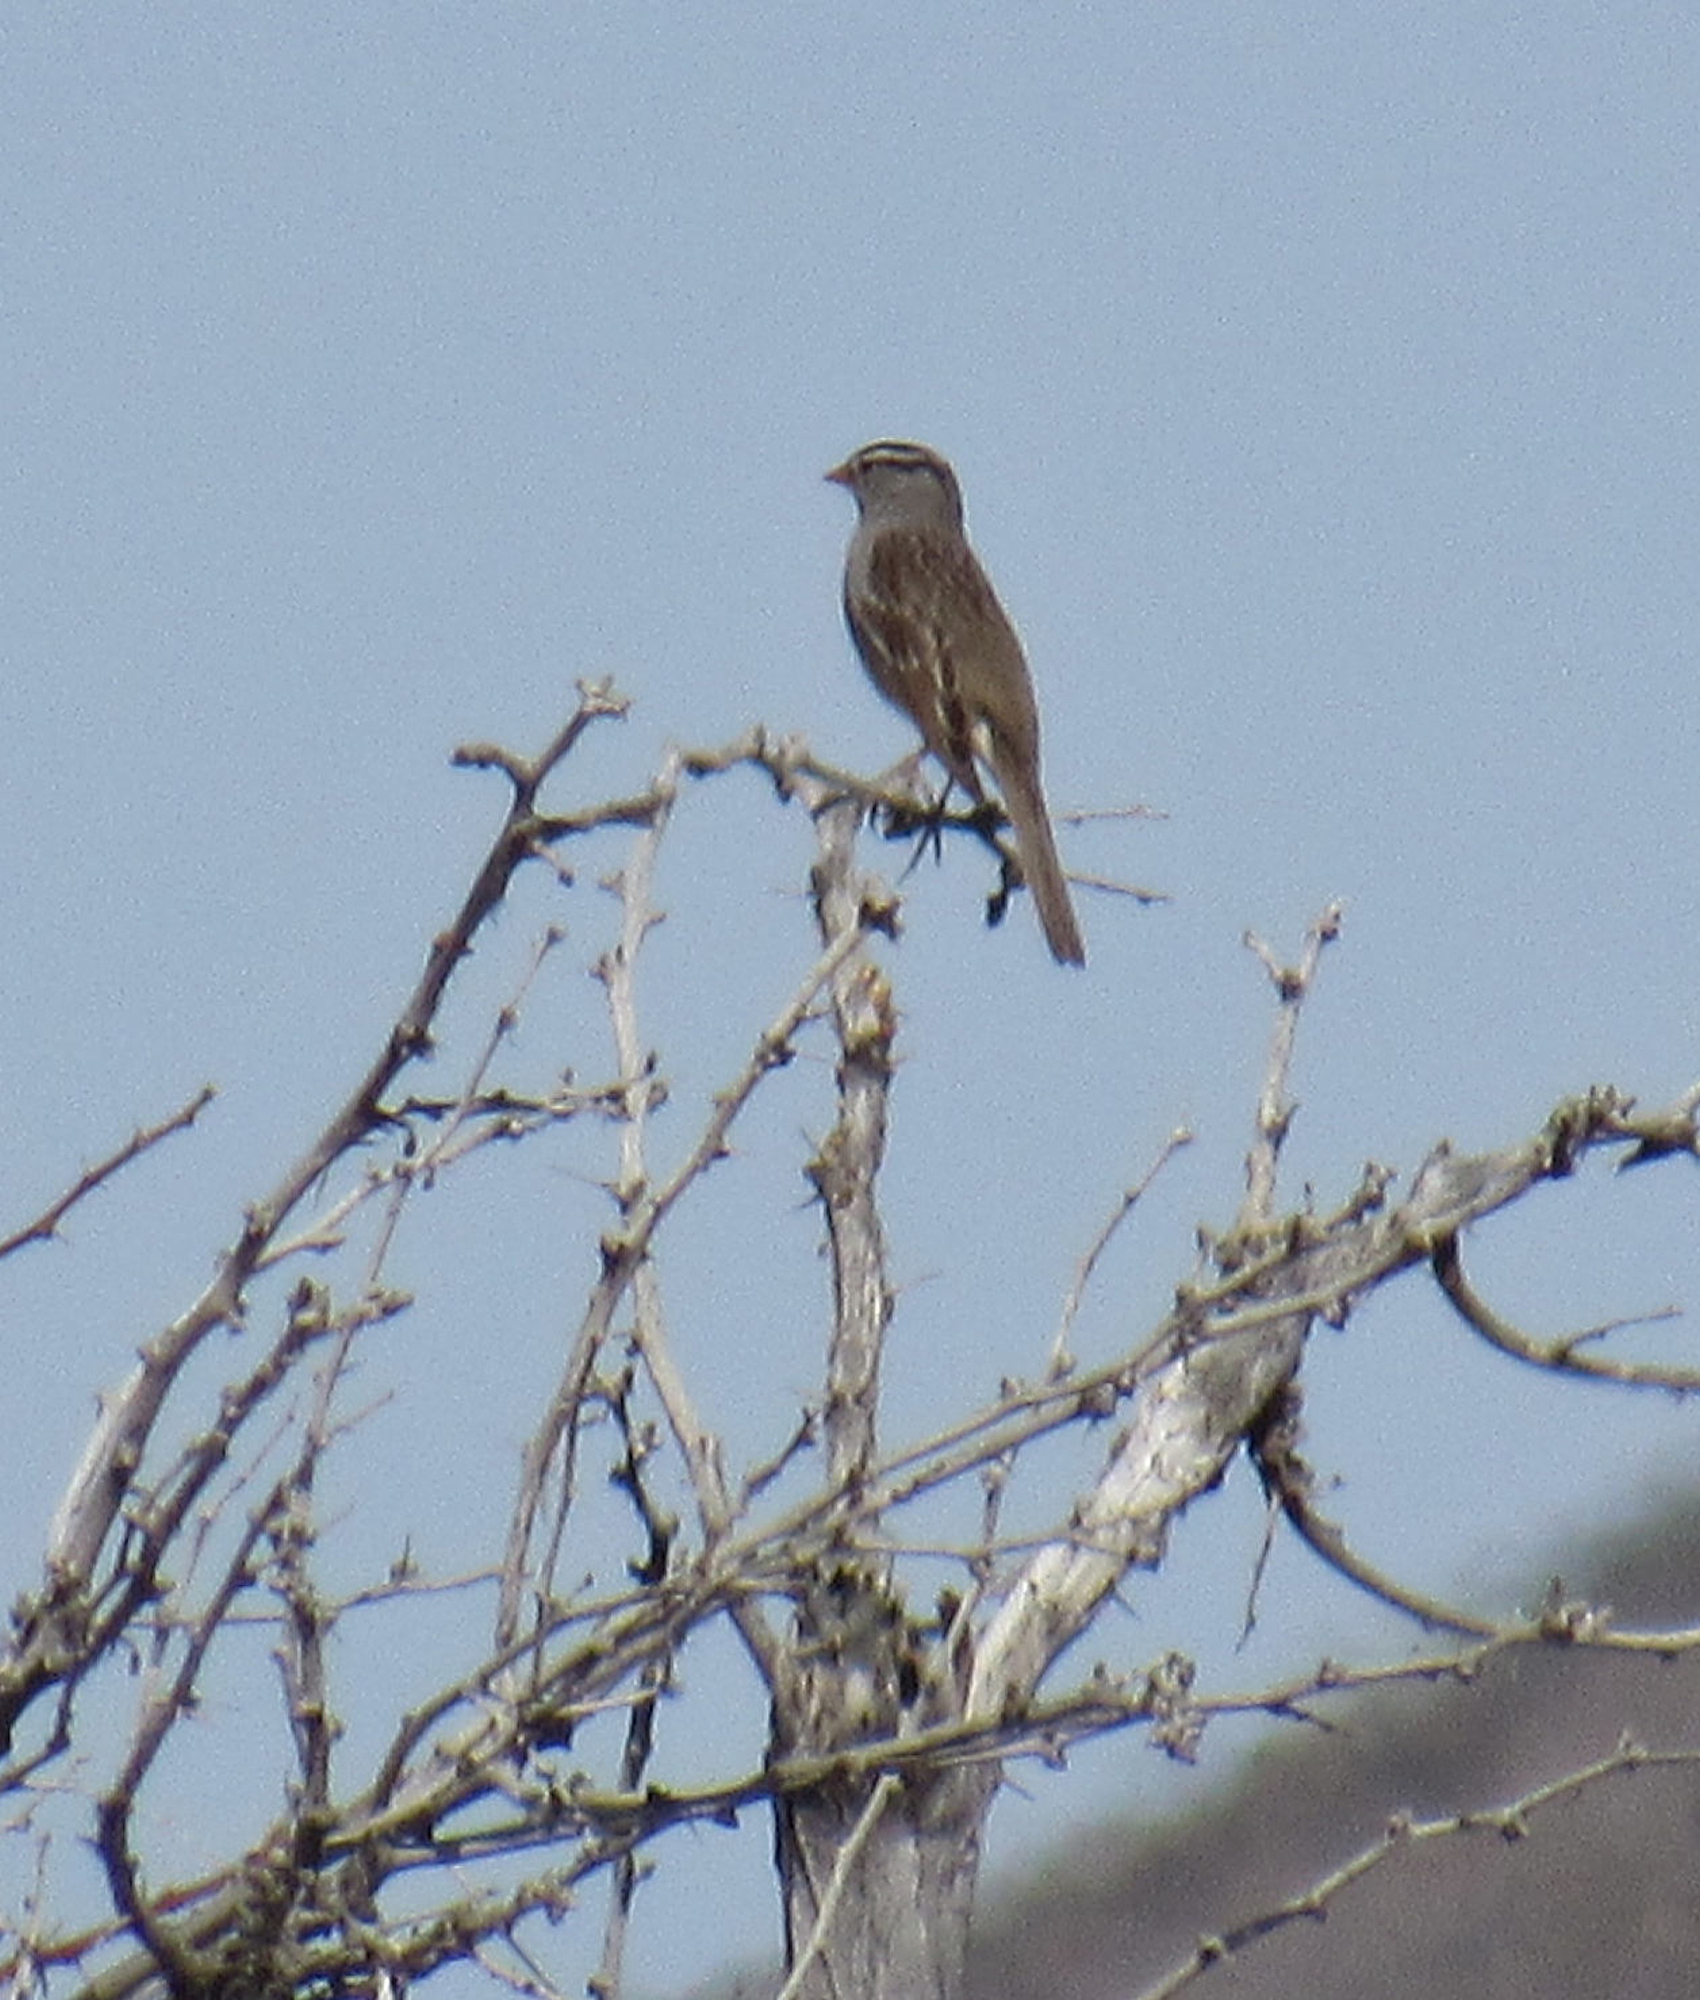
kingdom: Animalia
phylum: Chordata
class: Aves
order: Passeriformes
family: Passerellidae
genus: Zonotrichia
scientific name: Zonotrichia leucophrys
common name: White-crowned sparrow
